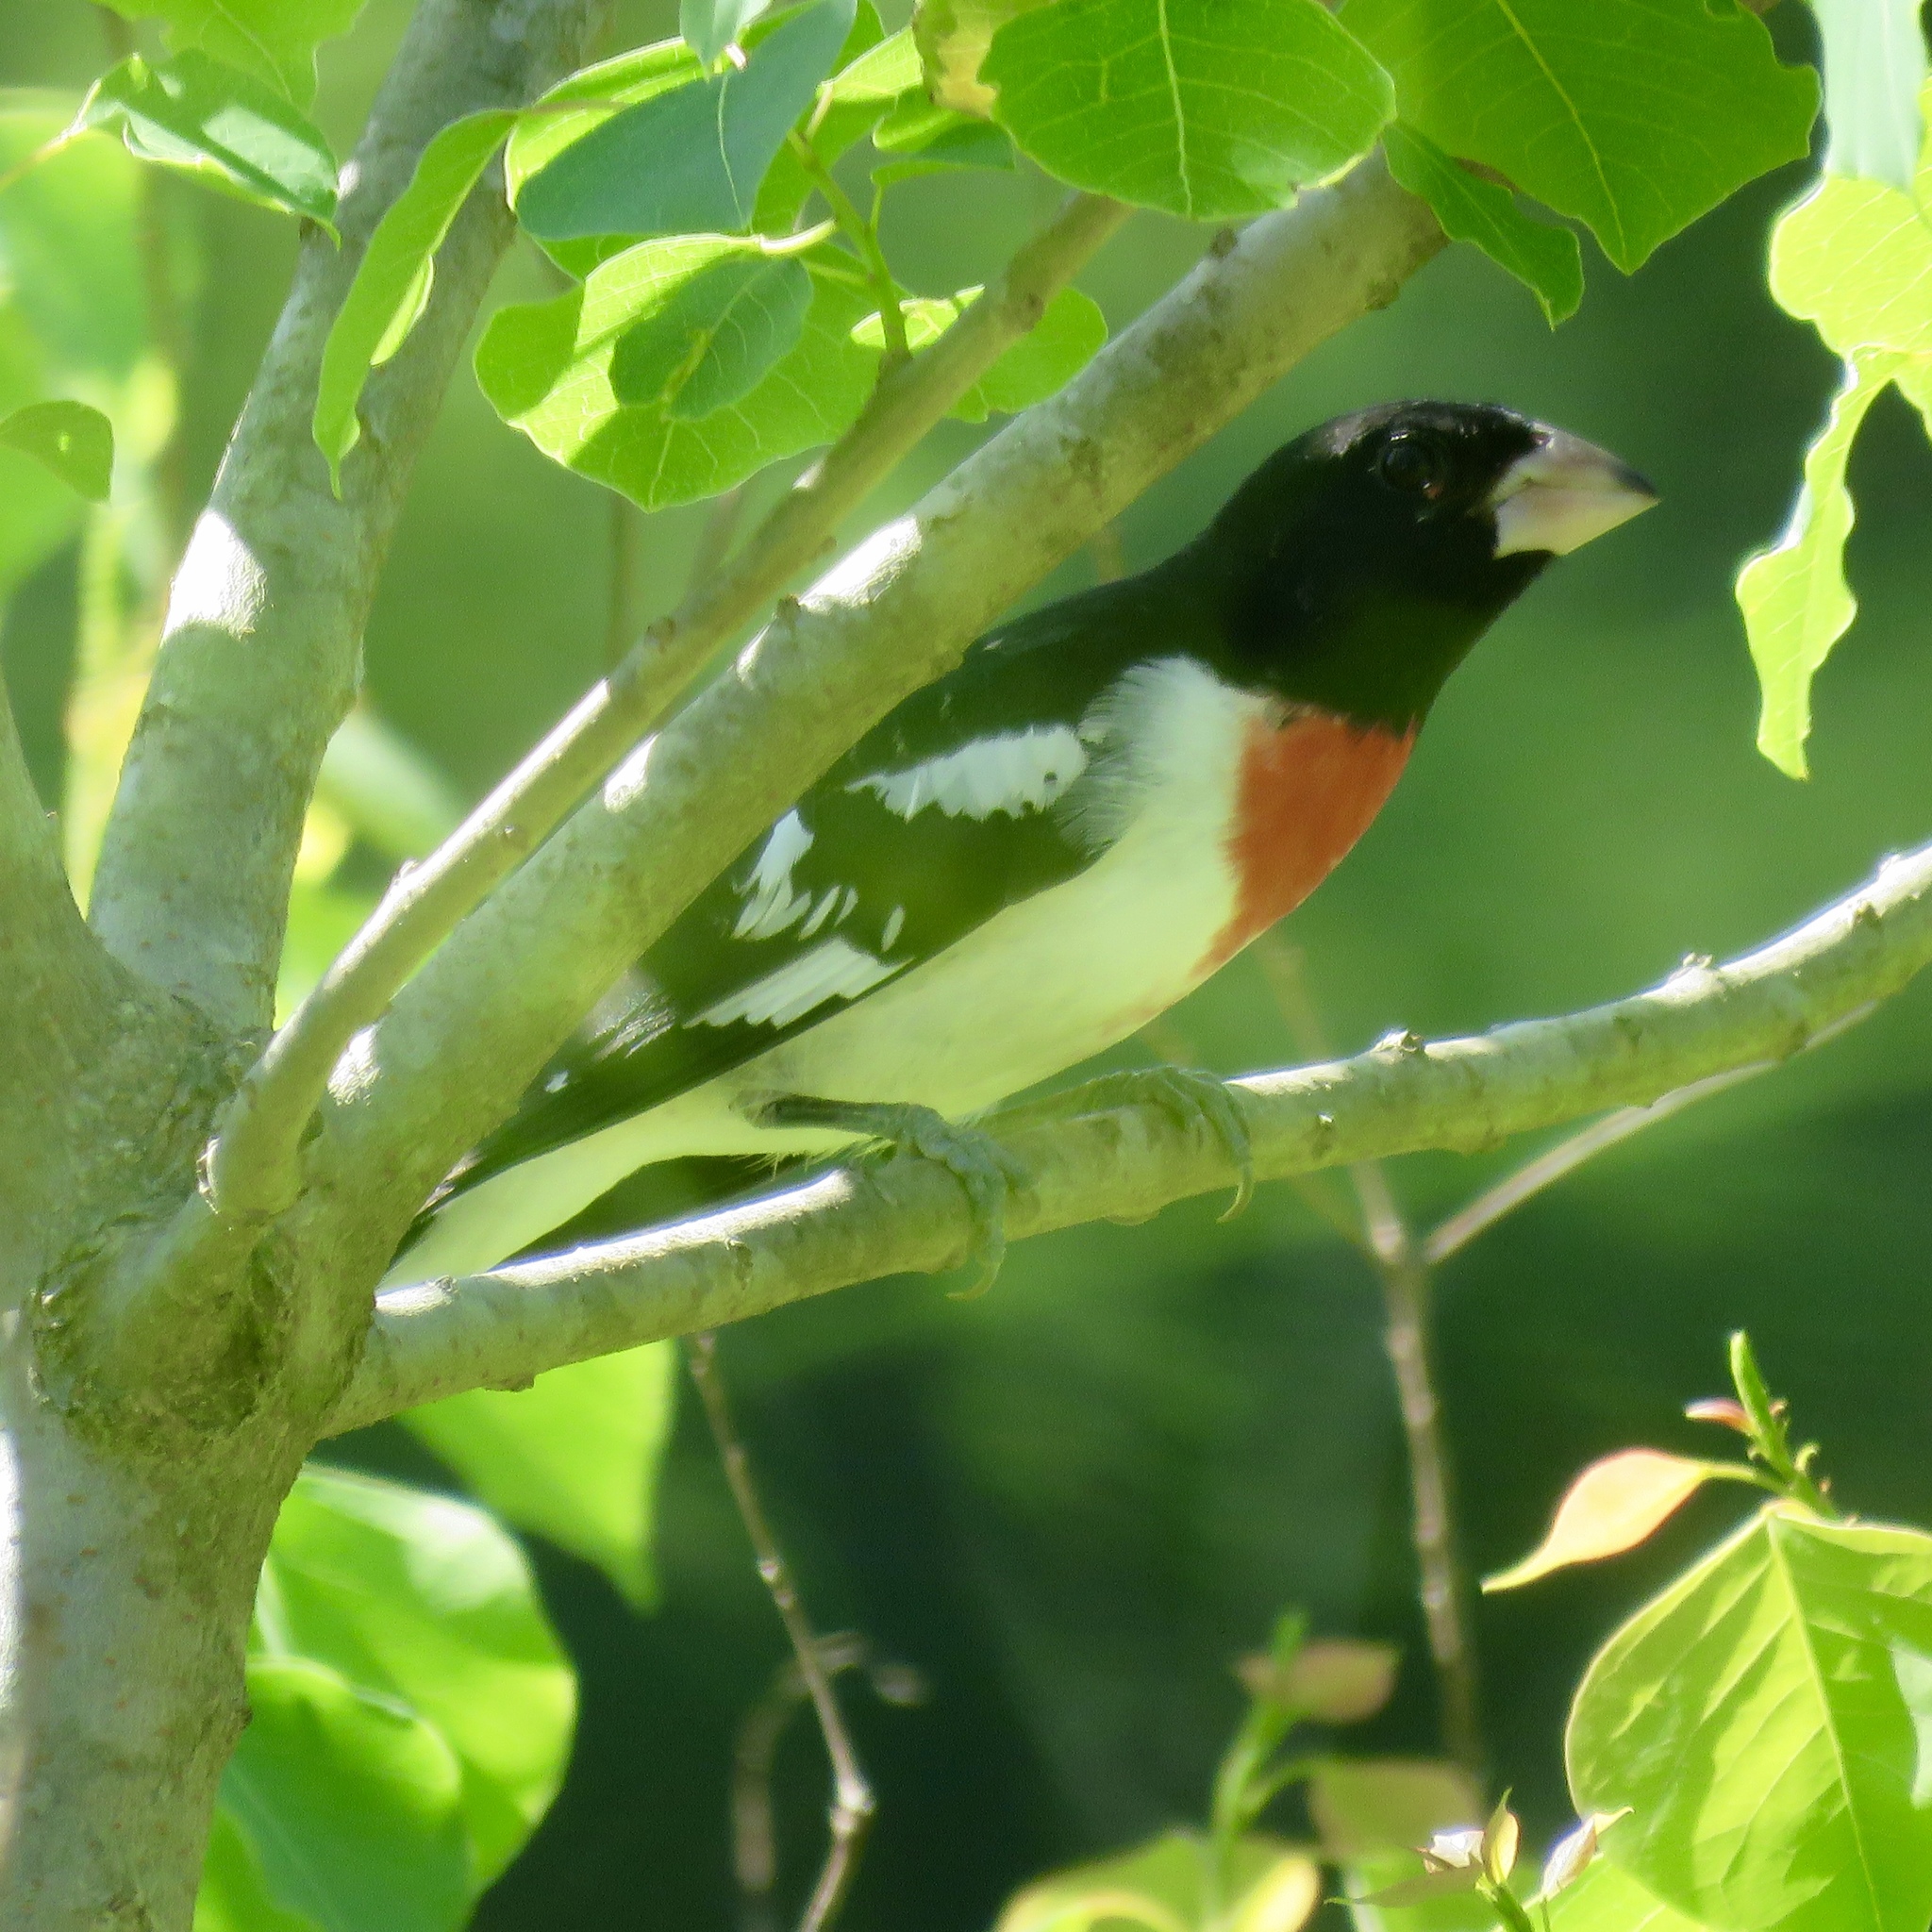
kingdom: Animalia
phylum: Chordata
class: Aves
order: Passeriformes
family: Cardinalidae
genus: Pheucticus
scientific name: Pheucticus ludovicianus
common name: Rose-breasted grosbeak
